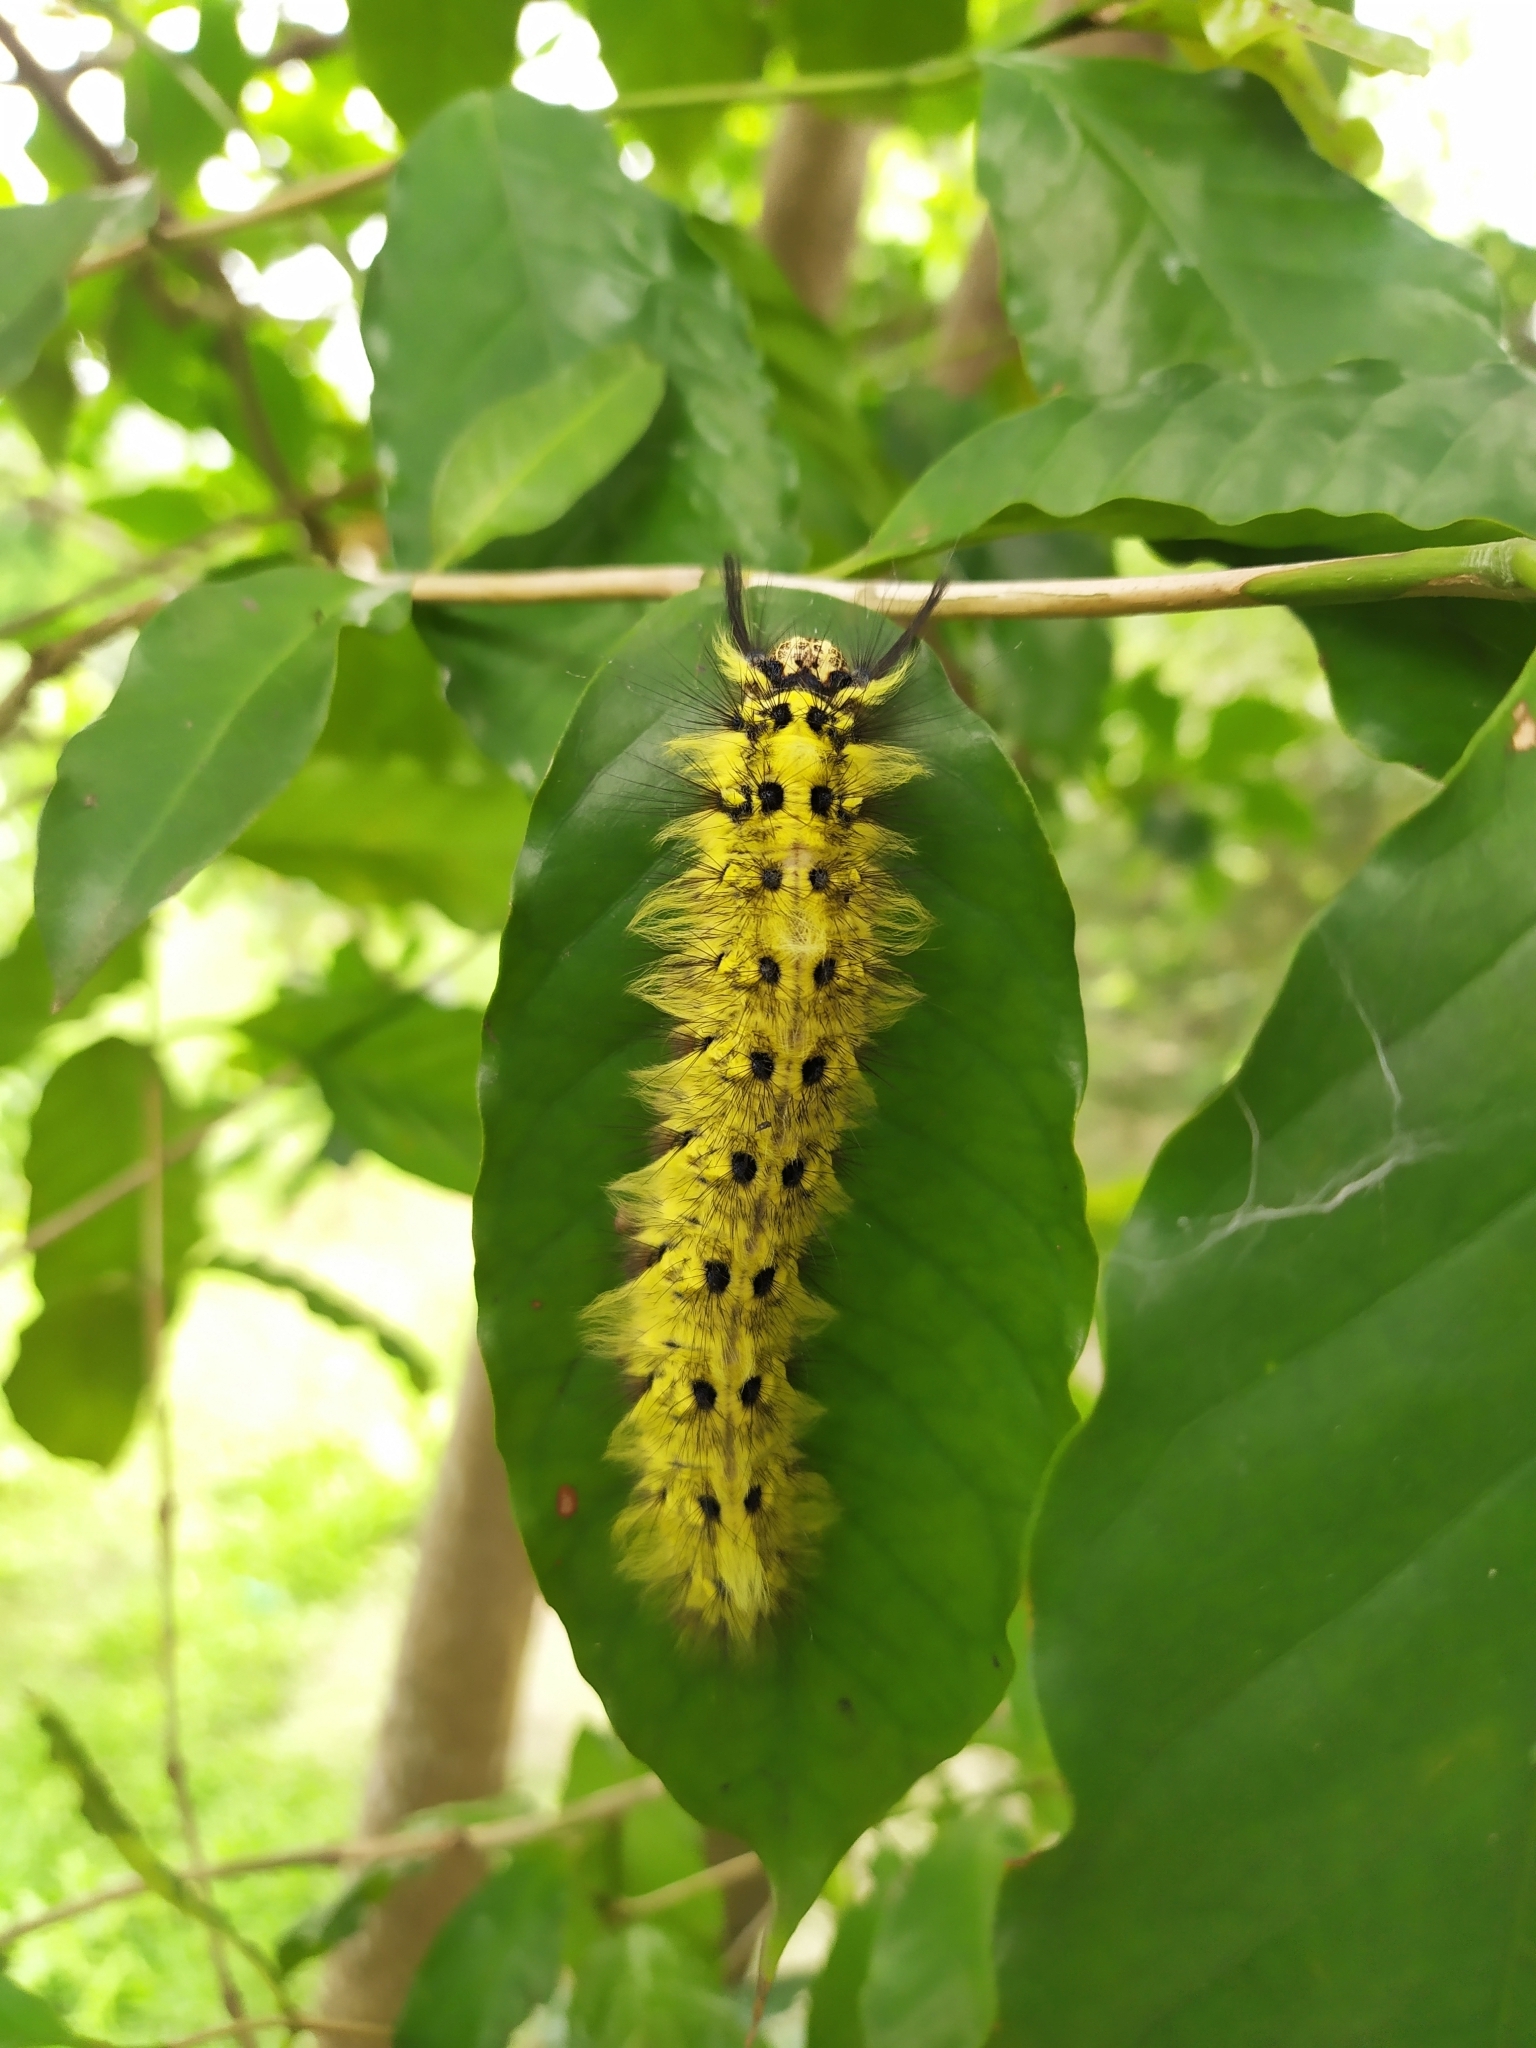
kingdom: Animalia
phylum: Arthropoda
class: Insecta
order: Lepidoptera
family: Lasiocampidae
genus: Trabala
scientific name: Trabala vishnou
